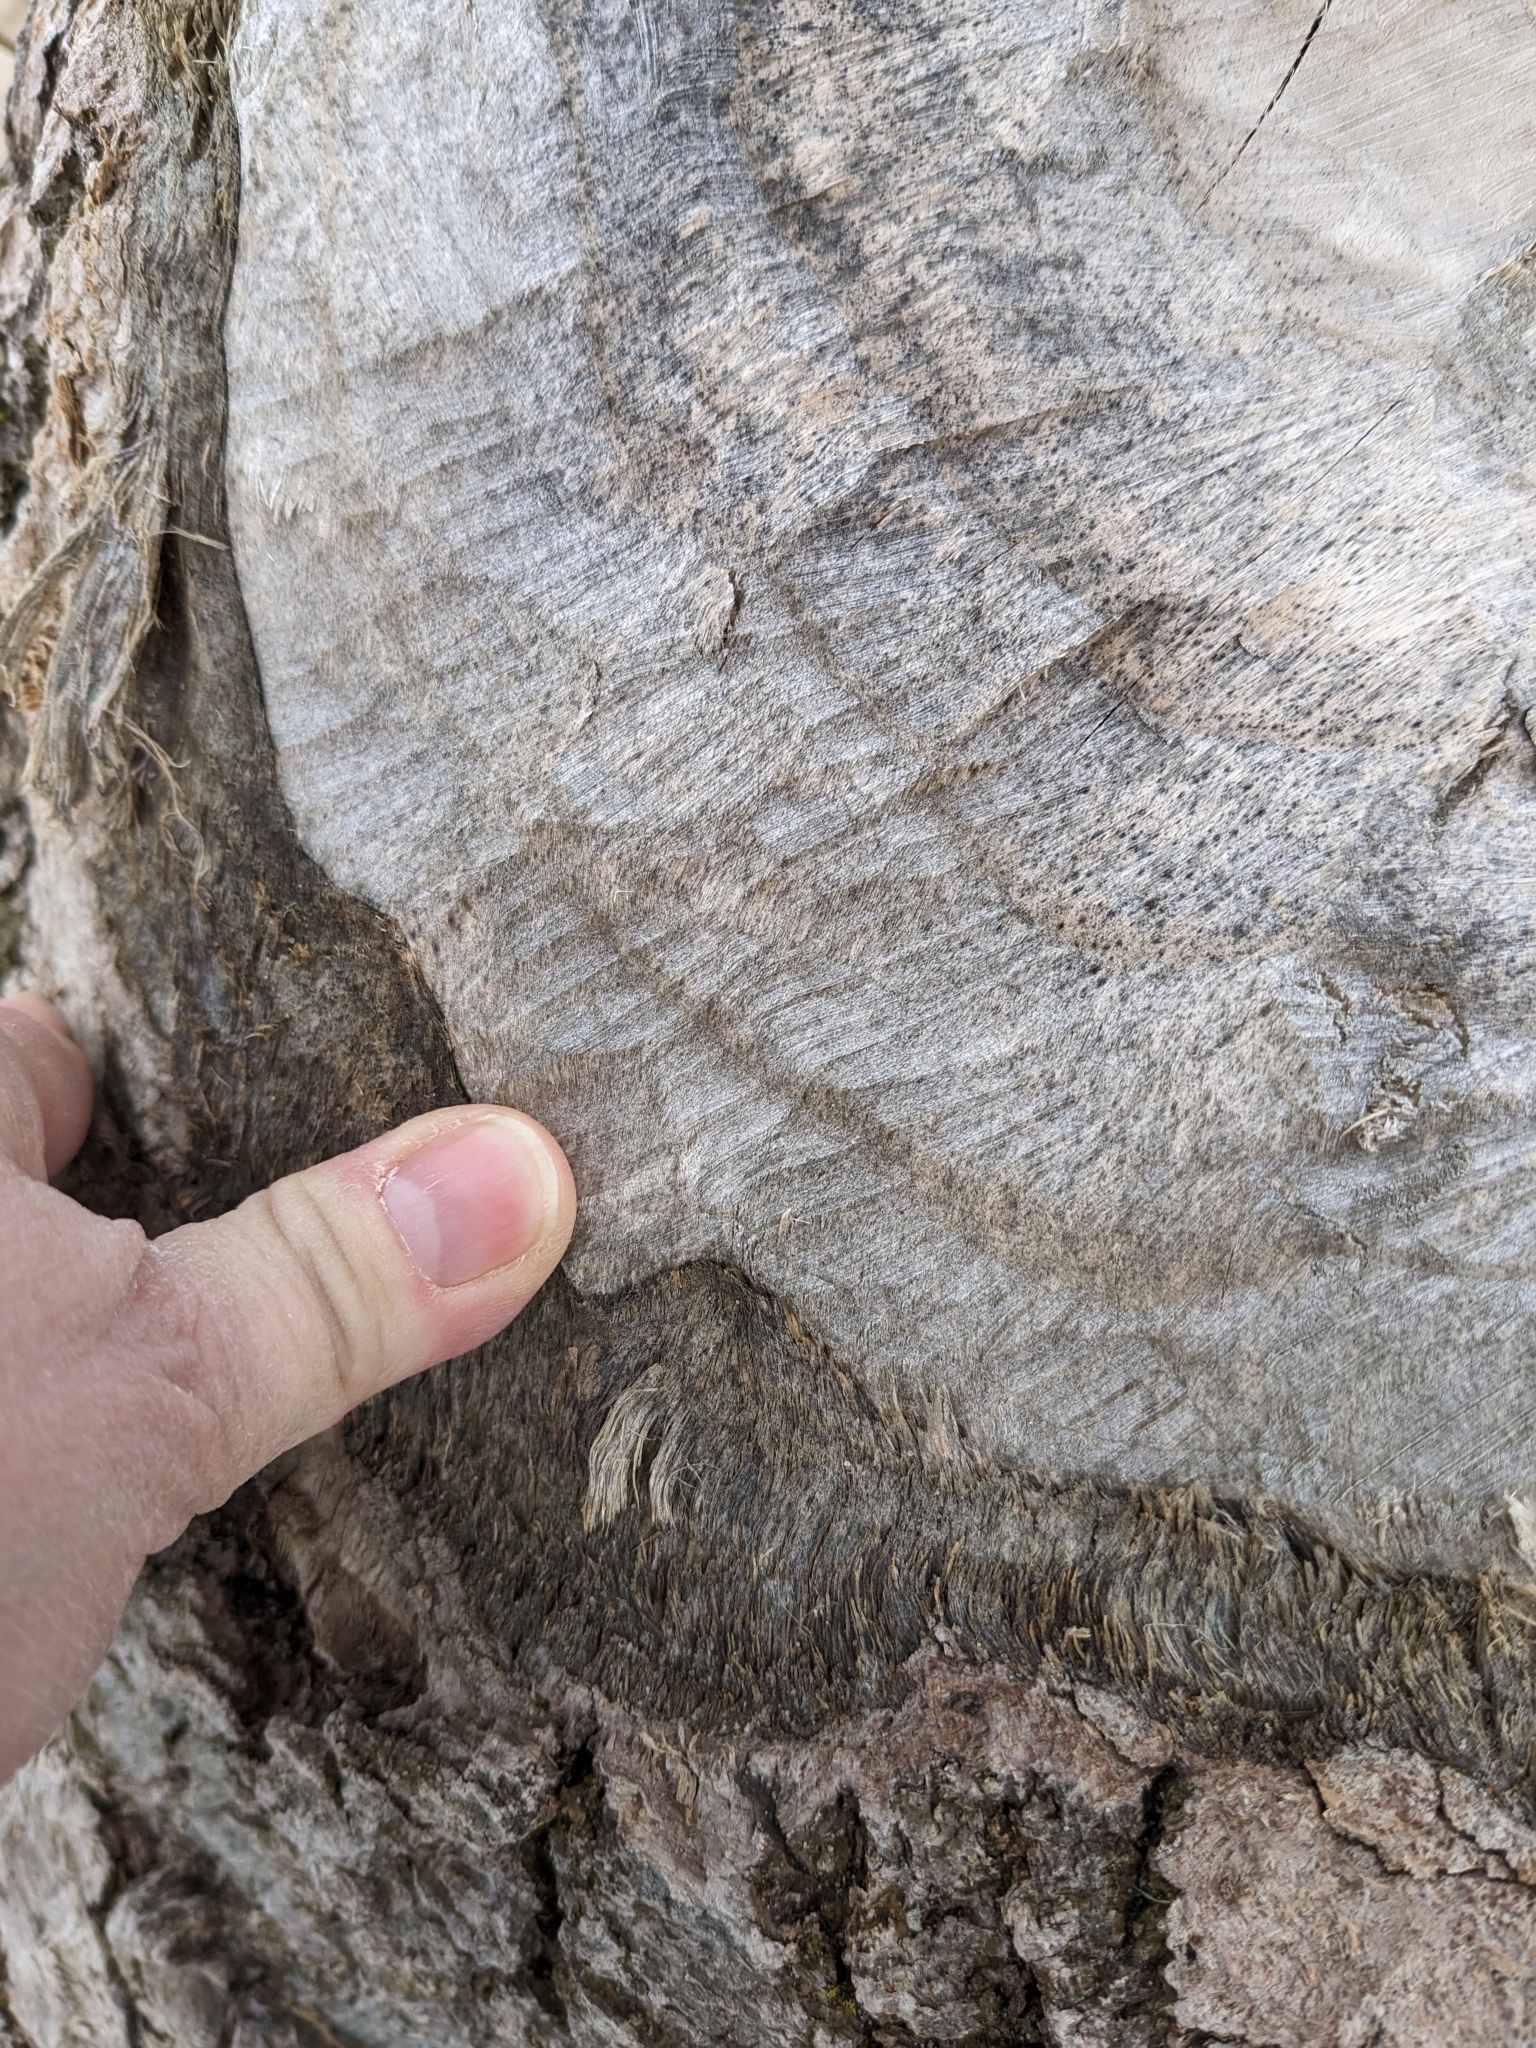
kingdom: Animalia
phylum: Chordata
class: Mammalia
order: Rodentia
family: Castoridae
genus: Castor
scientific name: Castor canadensis
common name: American beaver
